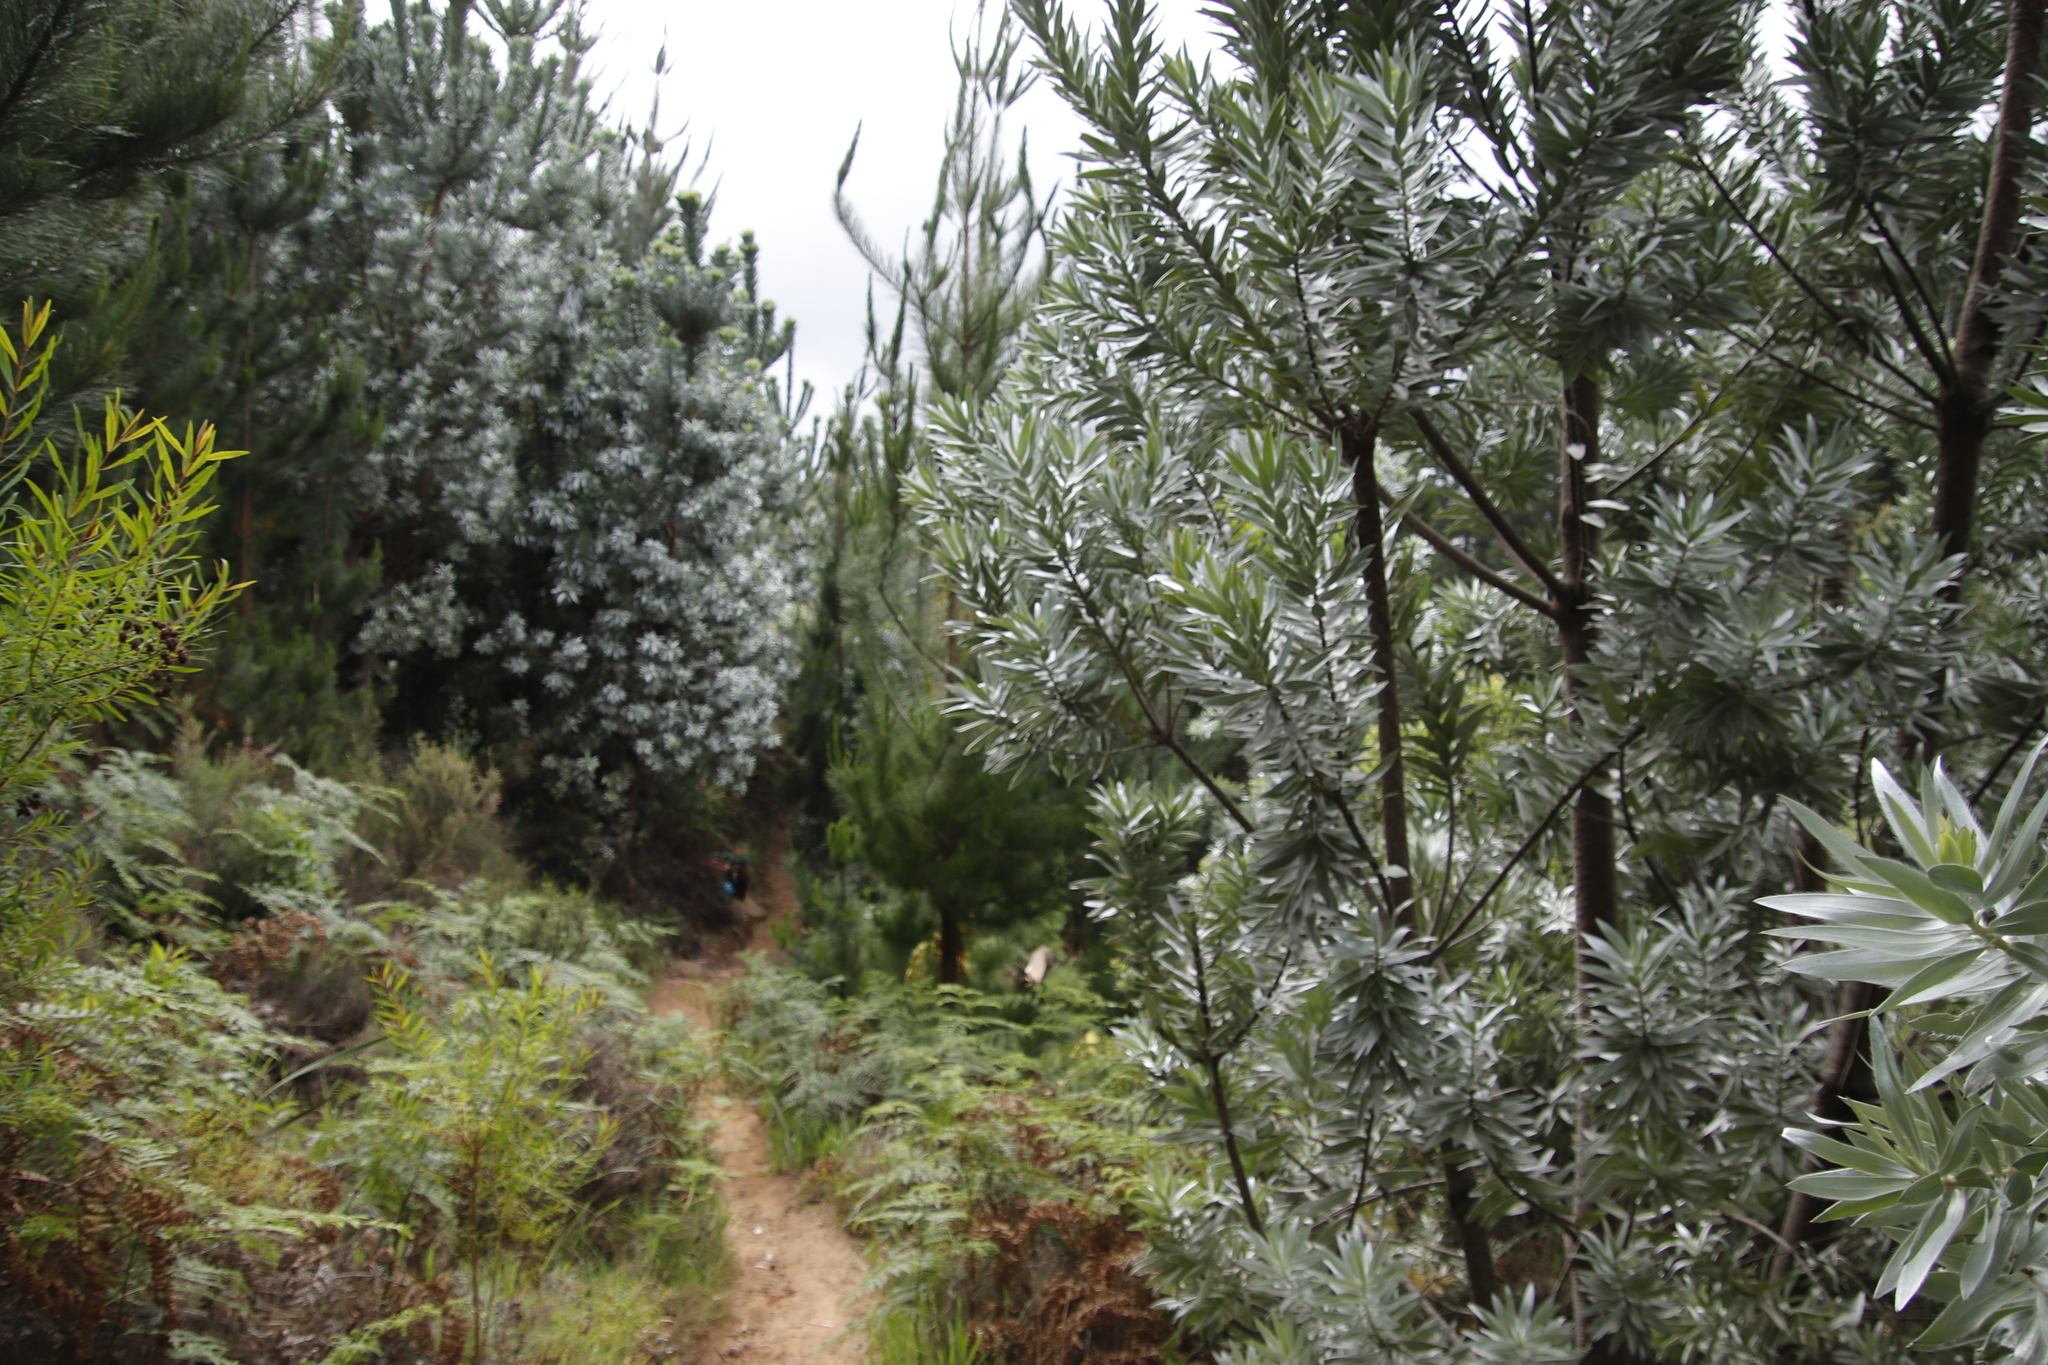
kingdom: Plantae
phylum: Tracheophyta
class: Magnoliopsida
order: Proteales
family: Proteaceae
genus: Leucadendron
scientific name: Leucadendron argenteum
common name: Cape silver tree
